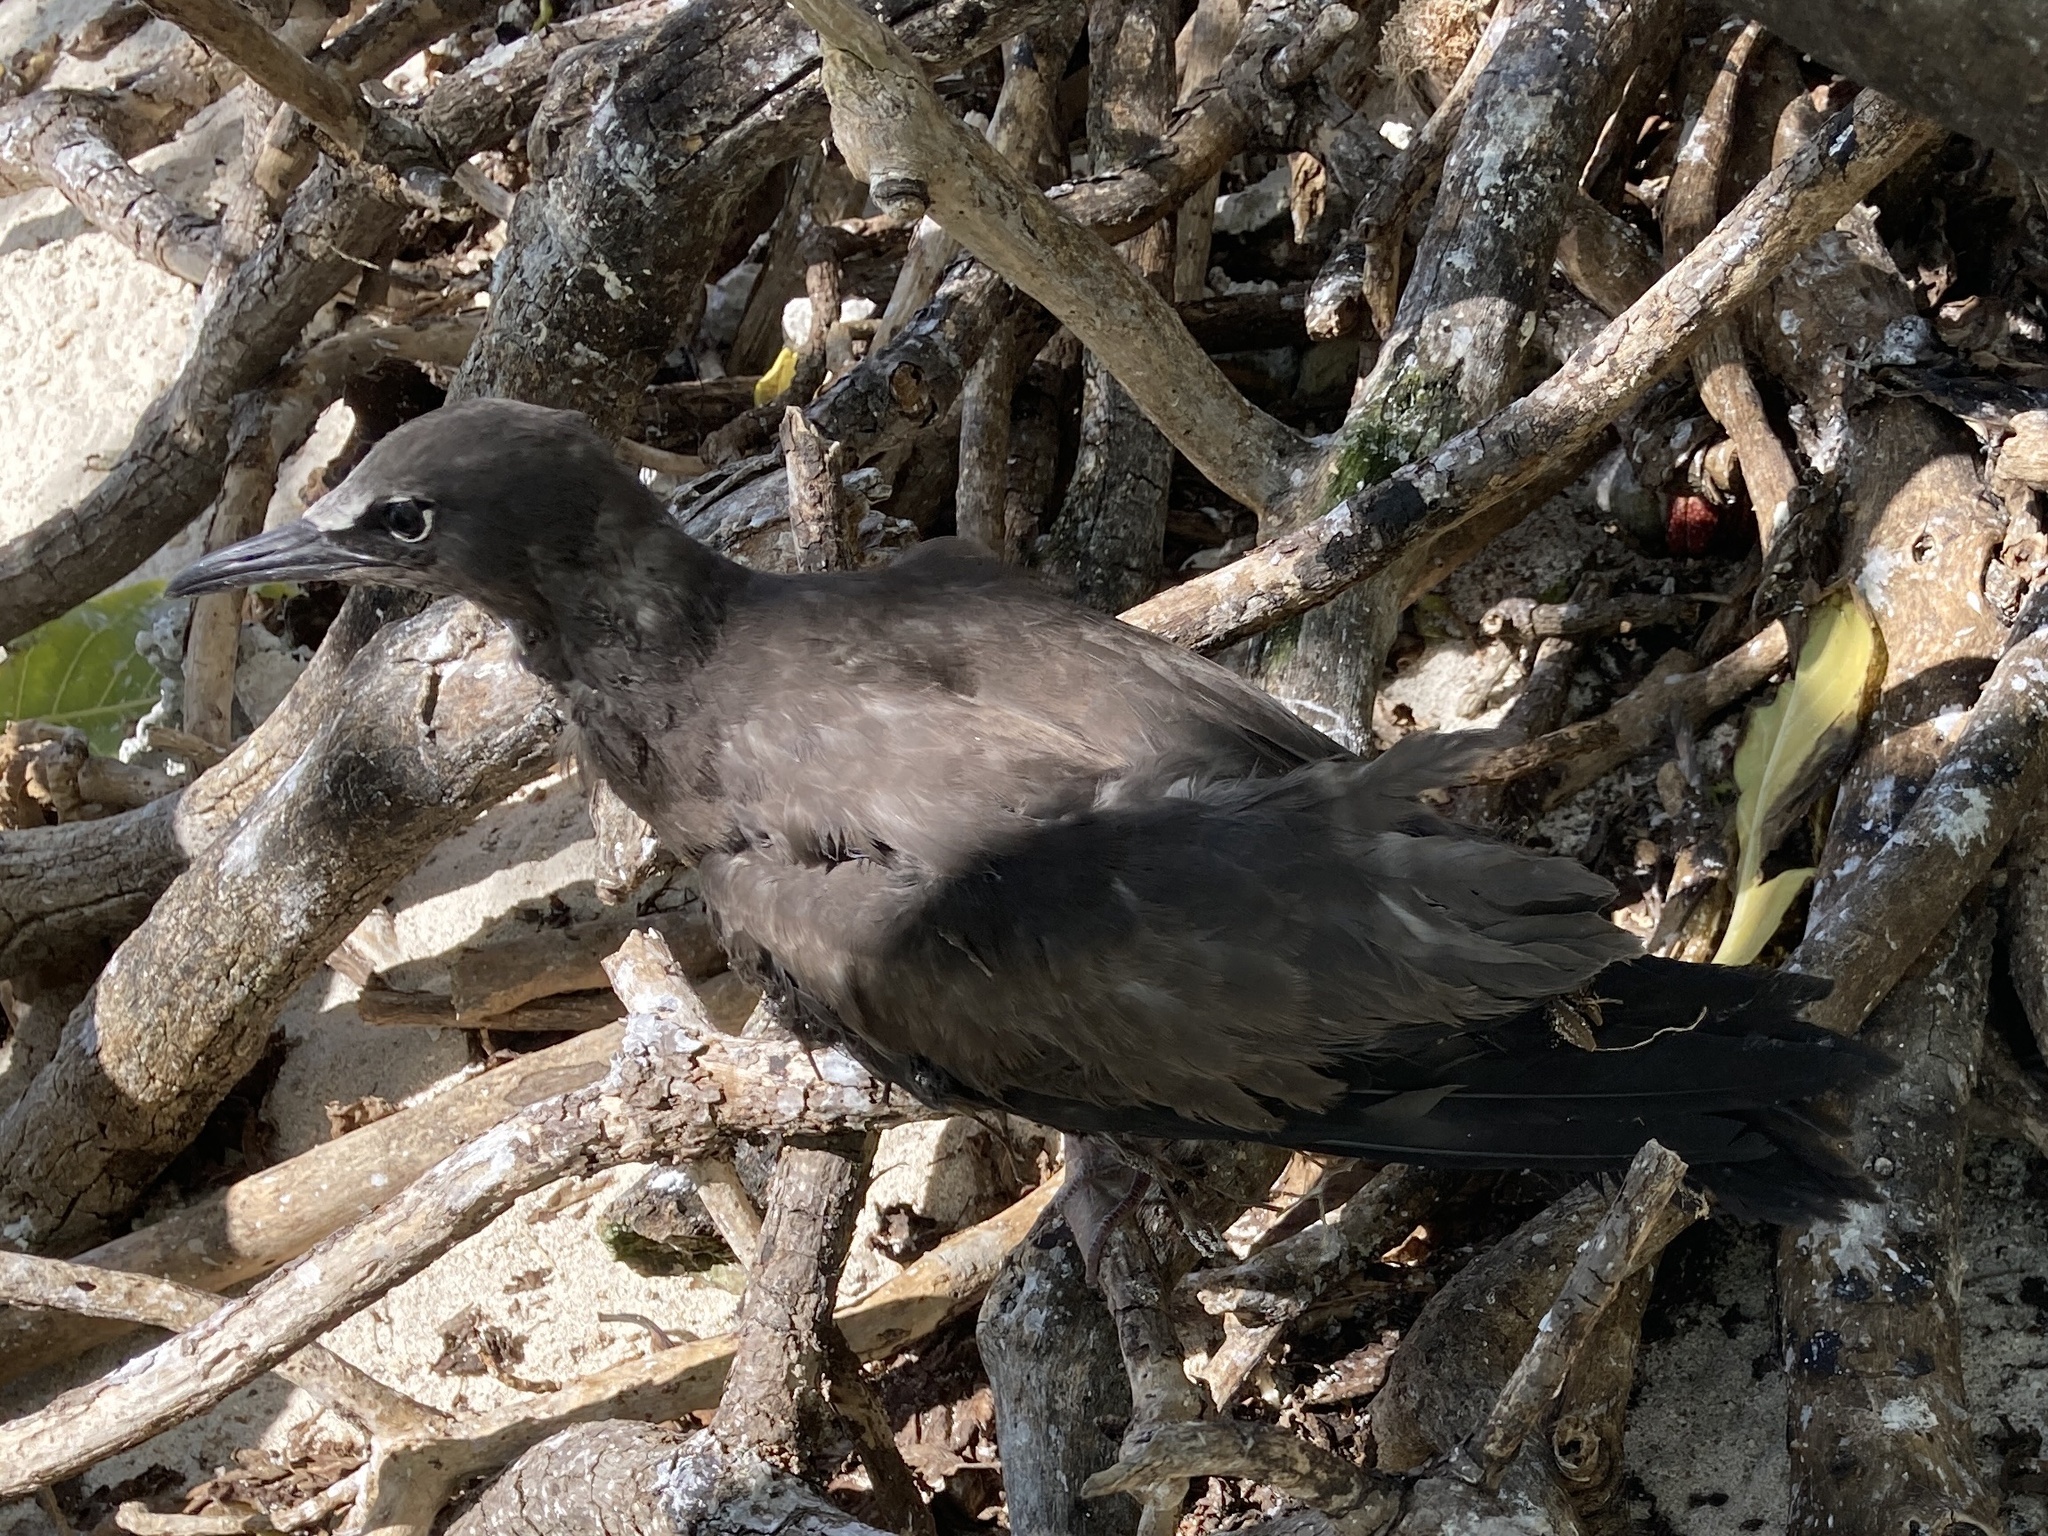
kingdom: Animalia
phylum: Chordata
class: Aves
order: Charadriiformes
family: Laridae
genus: Anous
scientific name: Anous stolidus
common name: Brown noddy
